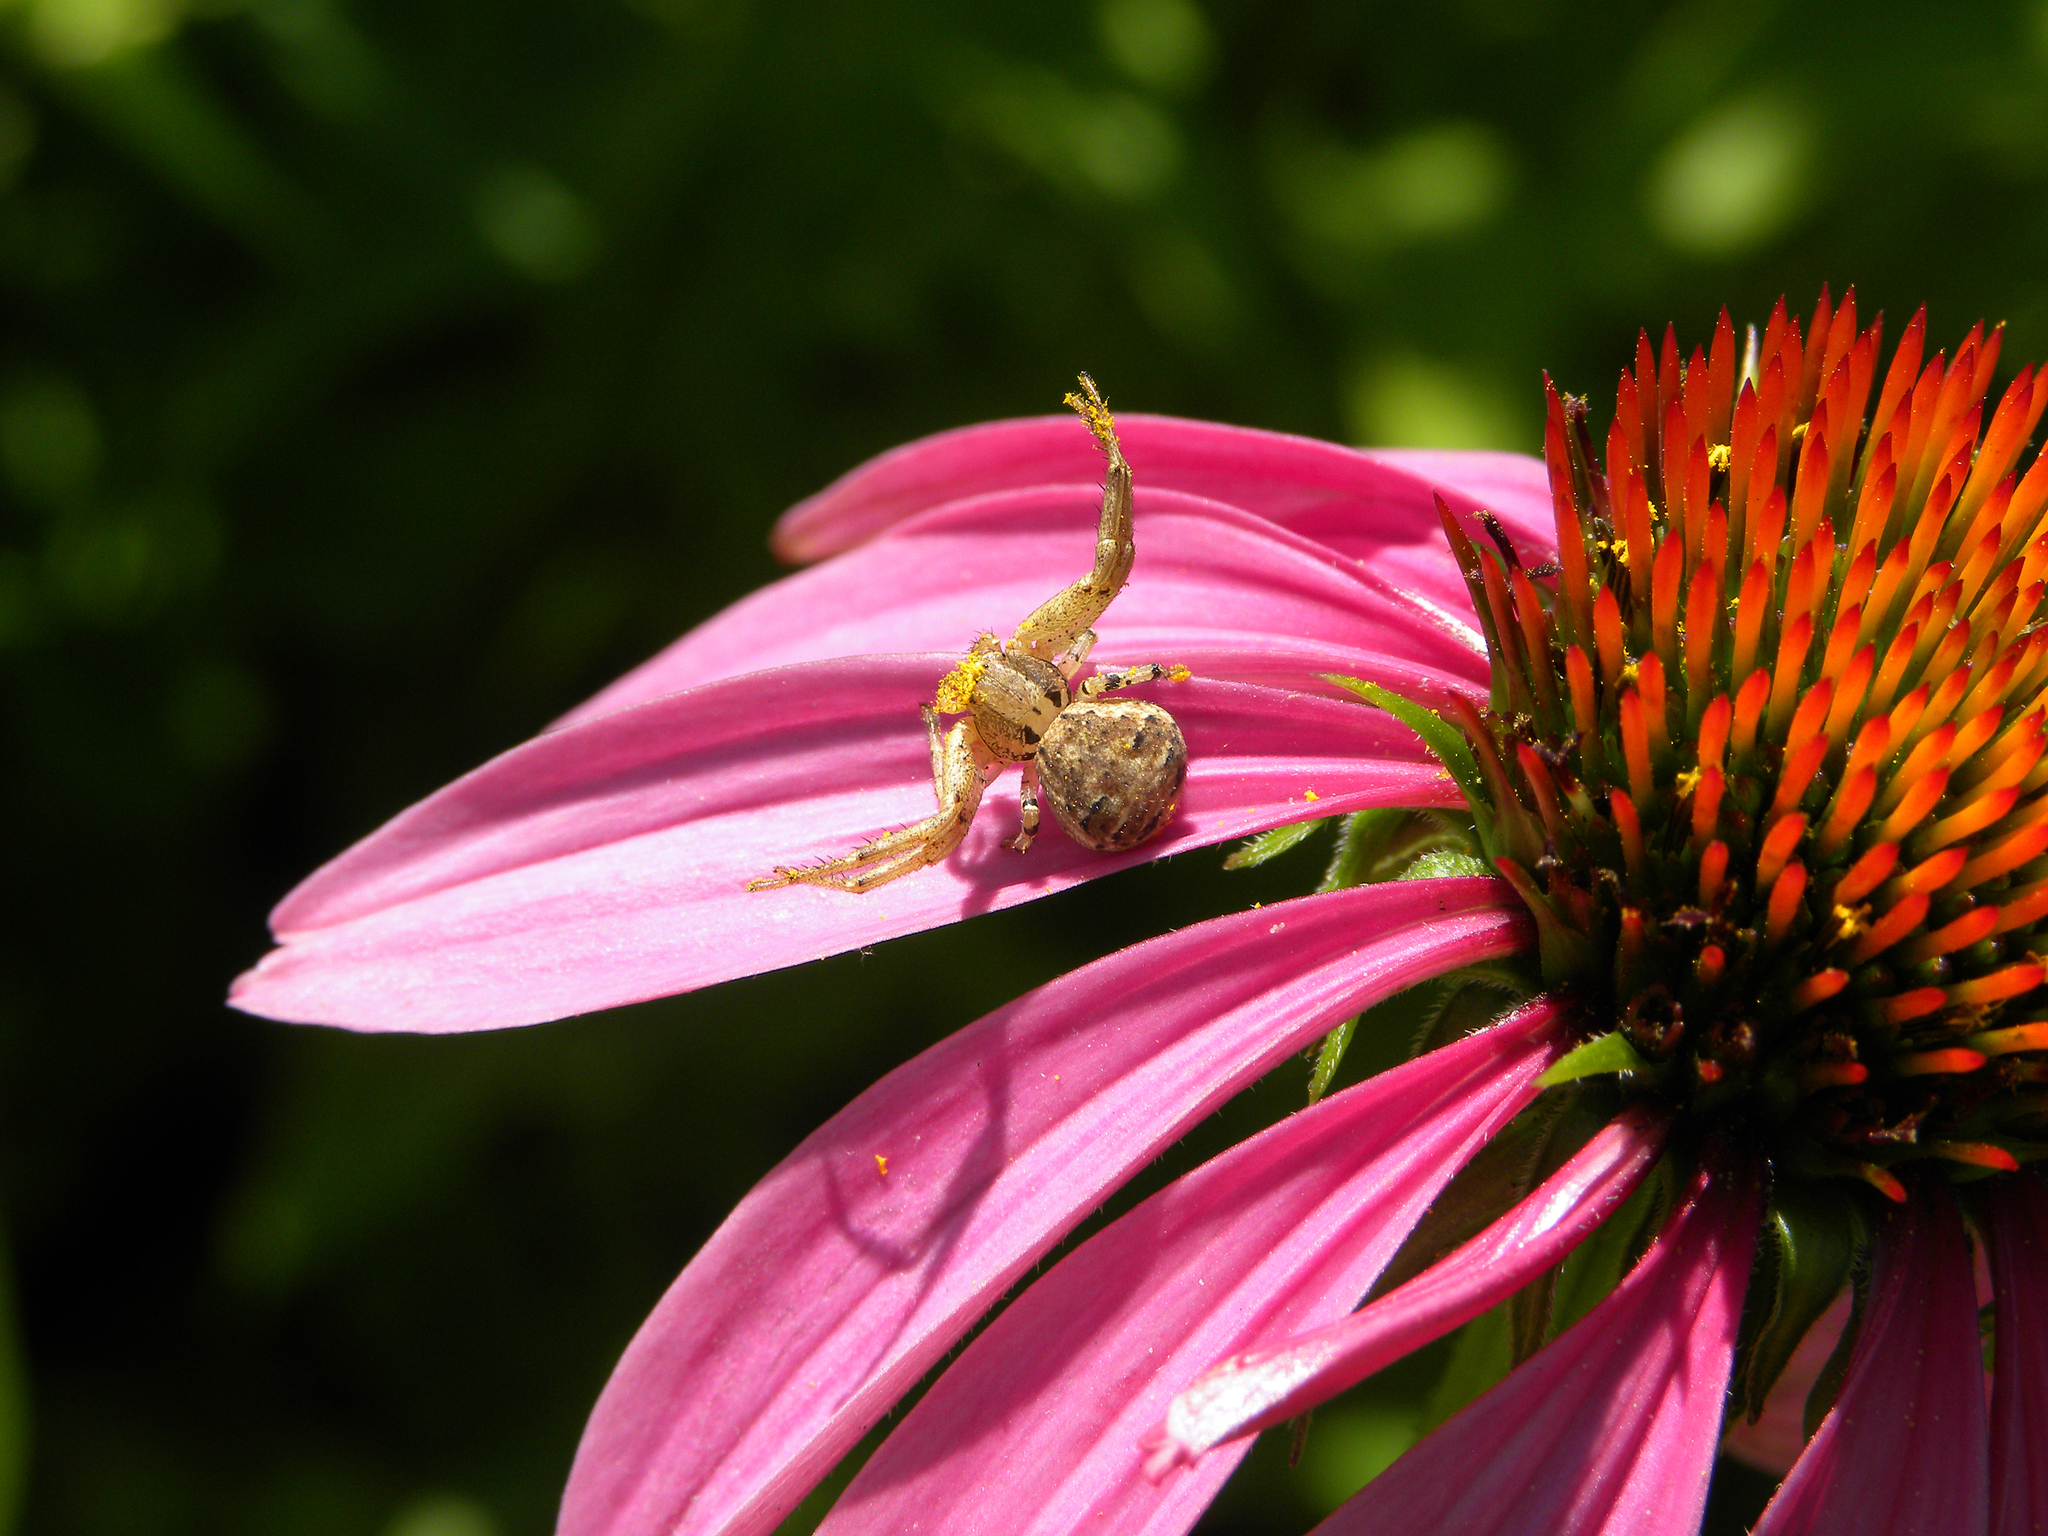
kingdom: Animalia
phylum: Arthropoda
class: Insecta
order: Hymenoptera
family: Halictidae
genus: Agapostemon
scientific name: Agapostemon virescens
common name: Bicolored striped sweat bee
